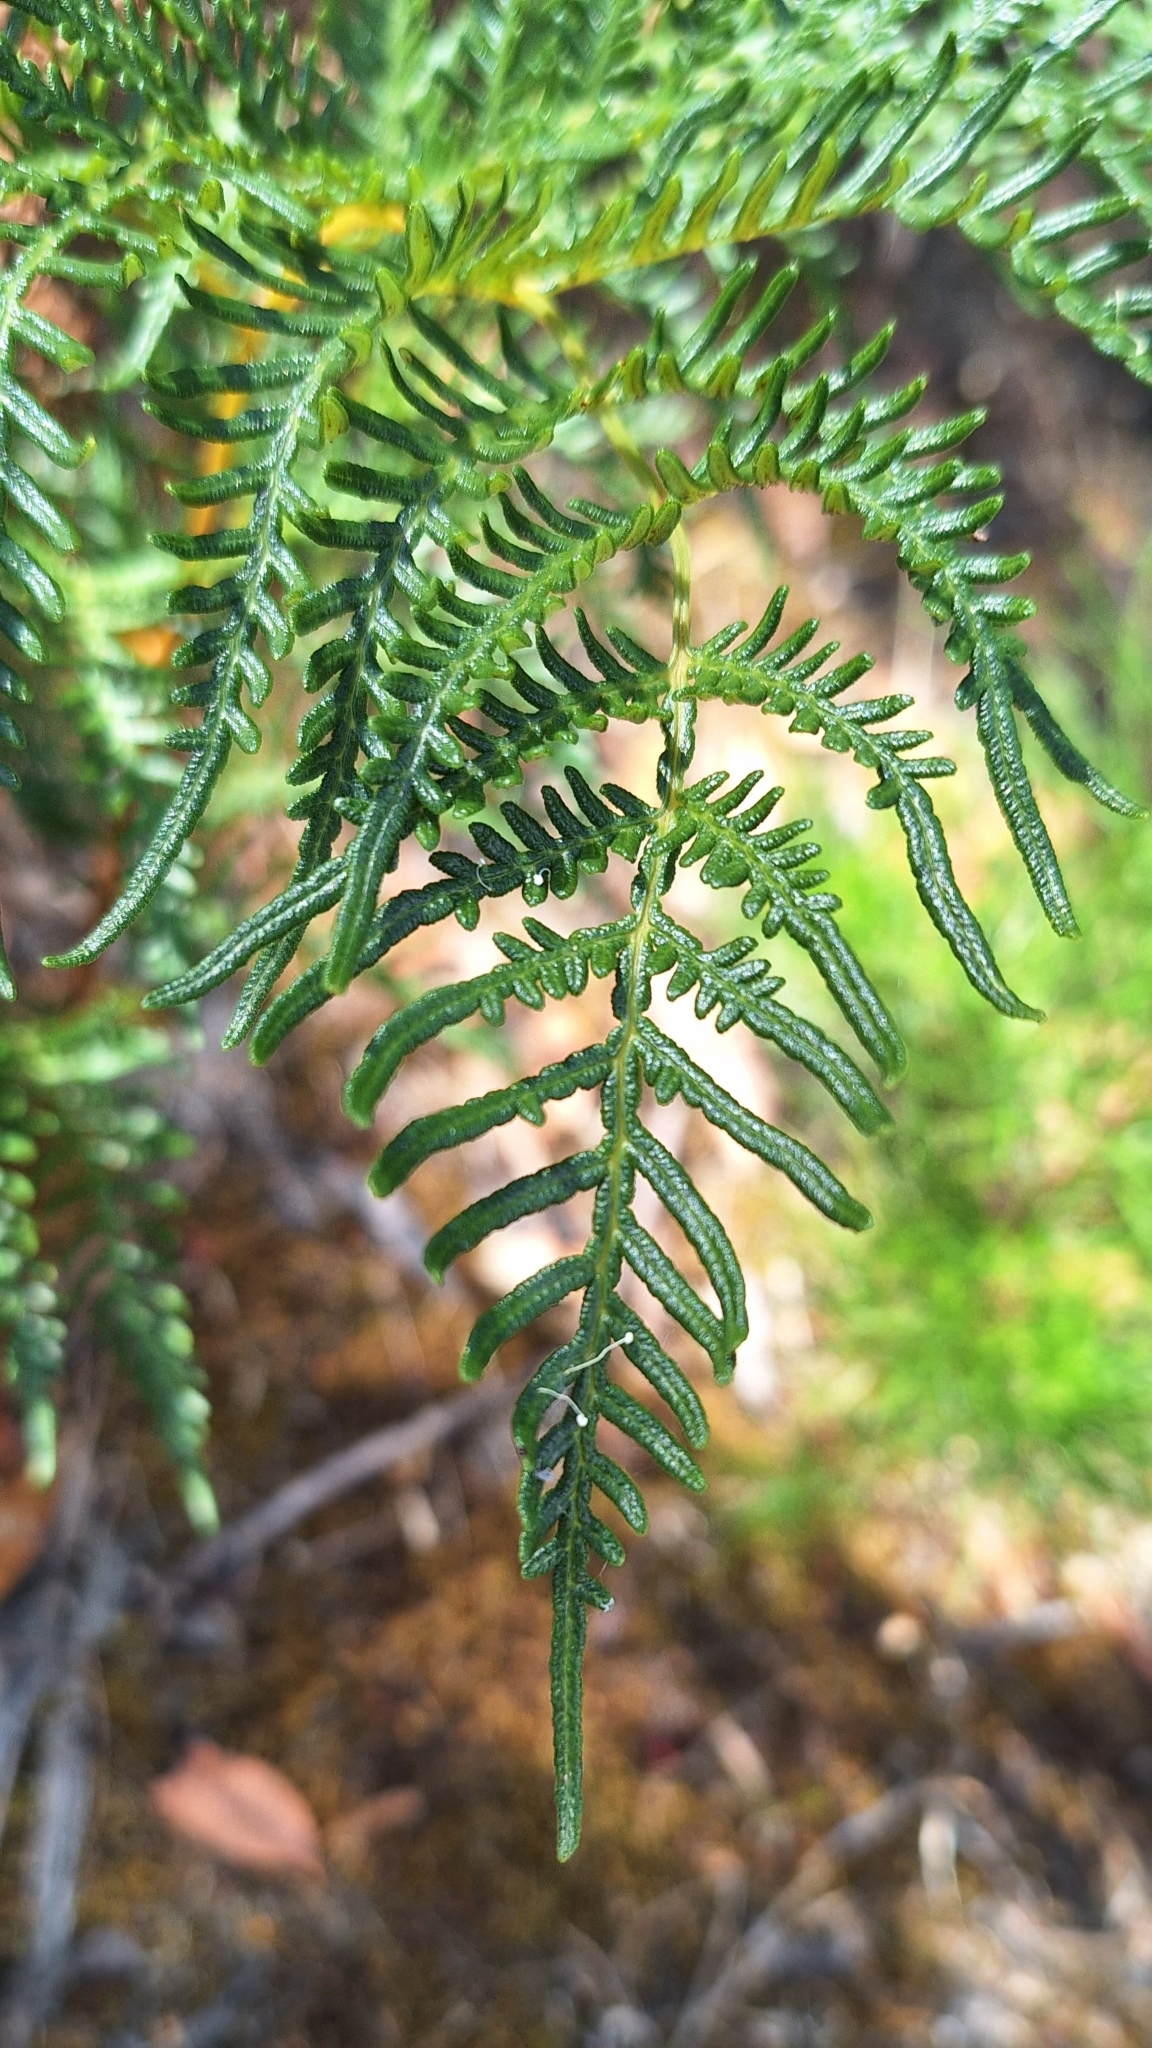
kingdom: Plantae
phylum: Tracheophyta
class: Polypodiopsida
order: Polypodiales
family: Dennstaedtiaceae
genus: Pteridium
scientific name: Pteridium esculentum
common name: Bracken fern
